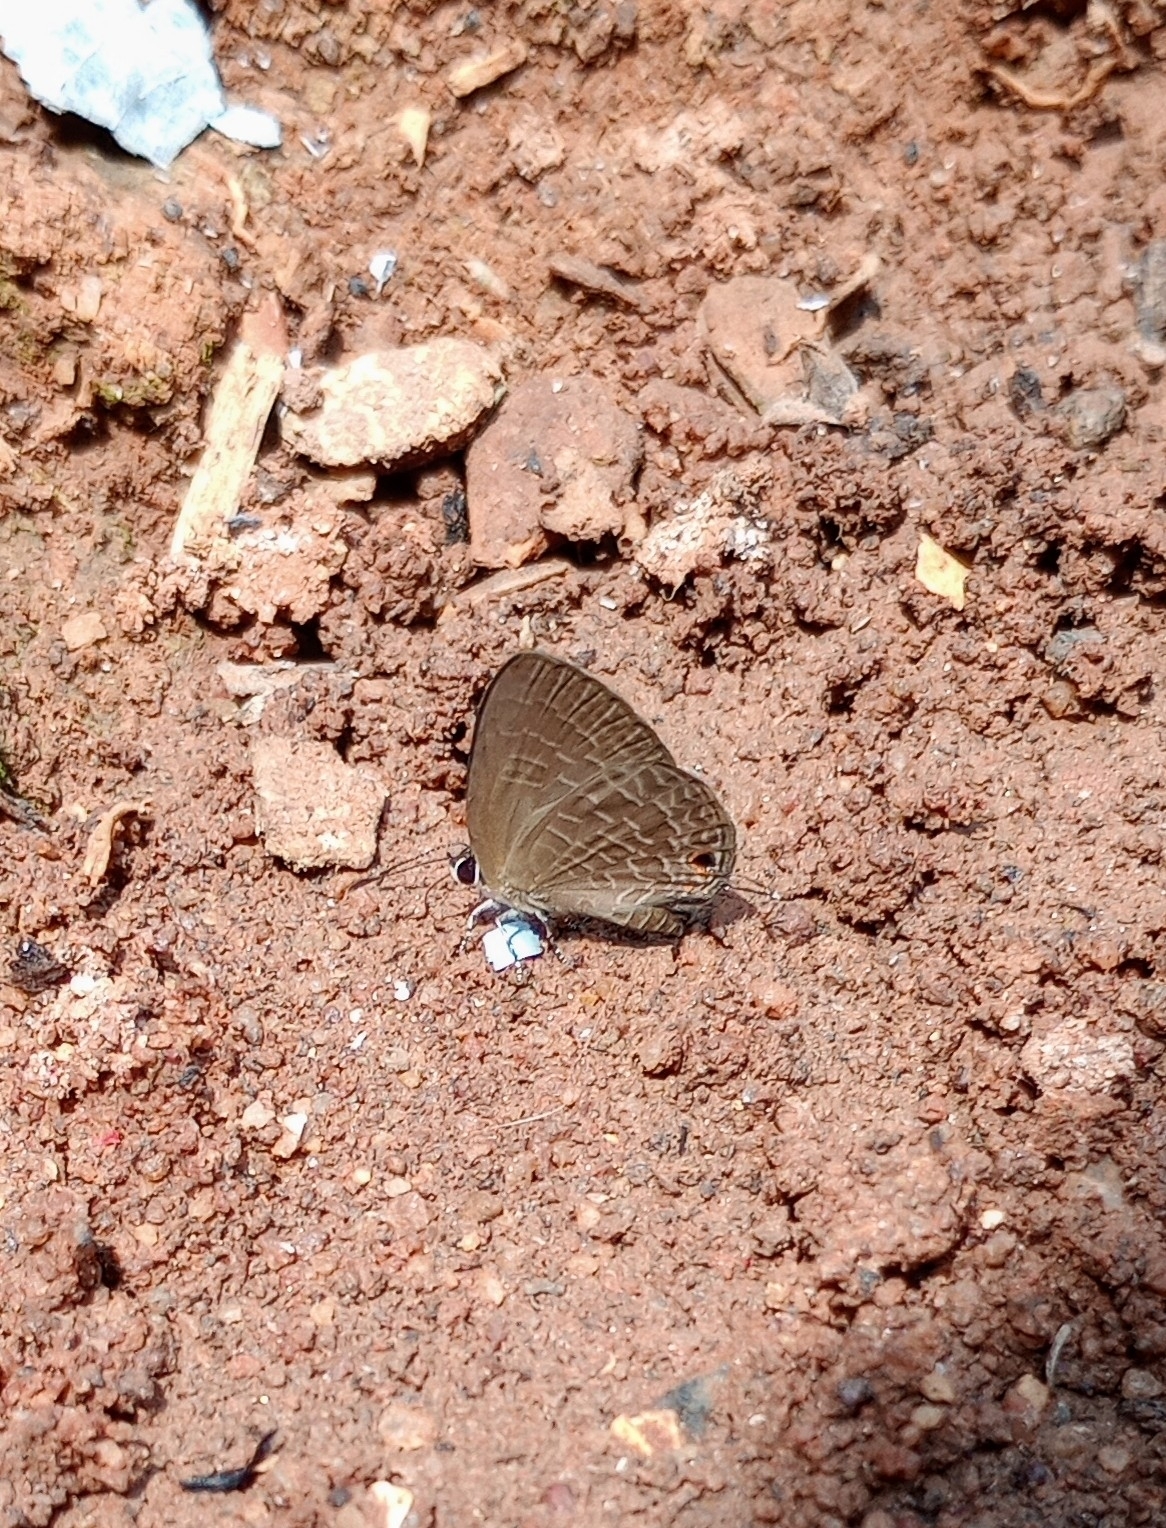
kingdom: Animalia
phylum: Arthropoda
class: Insecta
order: Lepidoptera
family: Lycaenidae
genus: Jamides
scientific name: Jamides bochus
